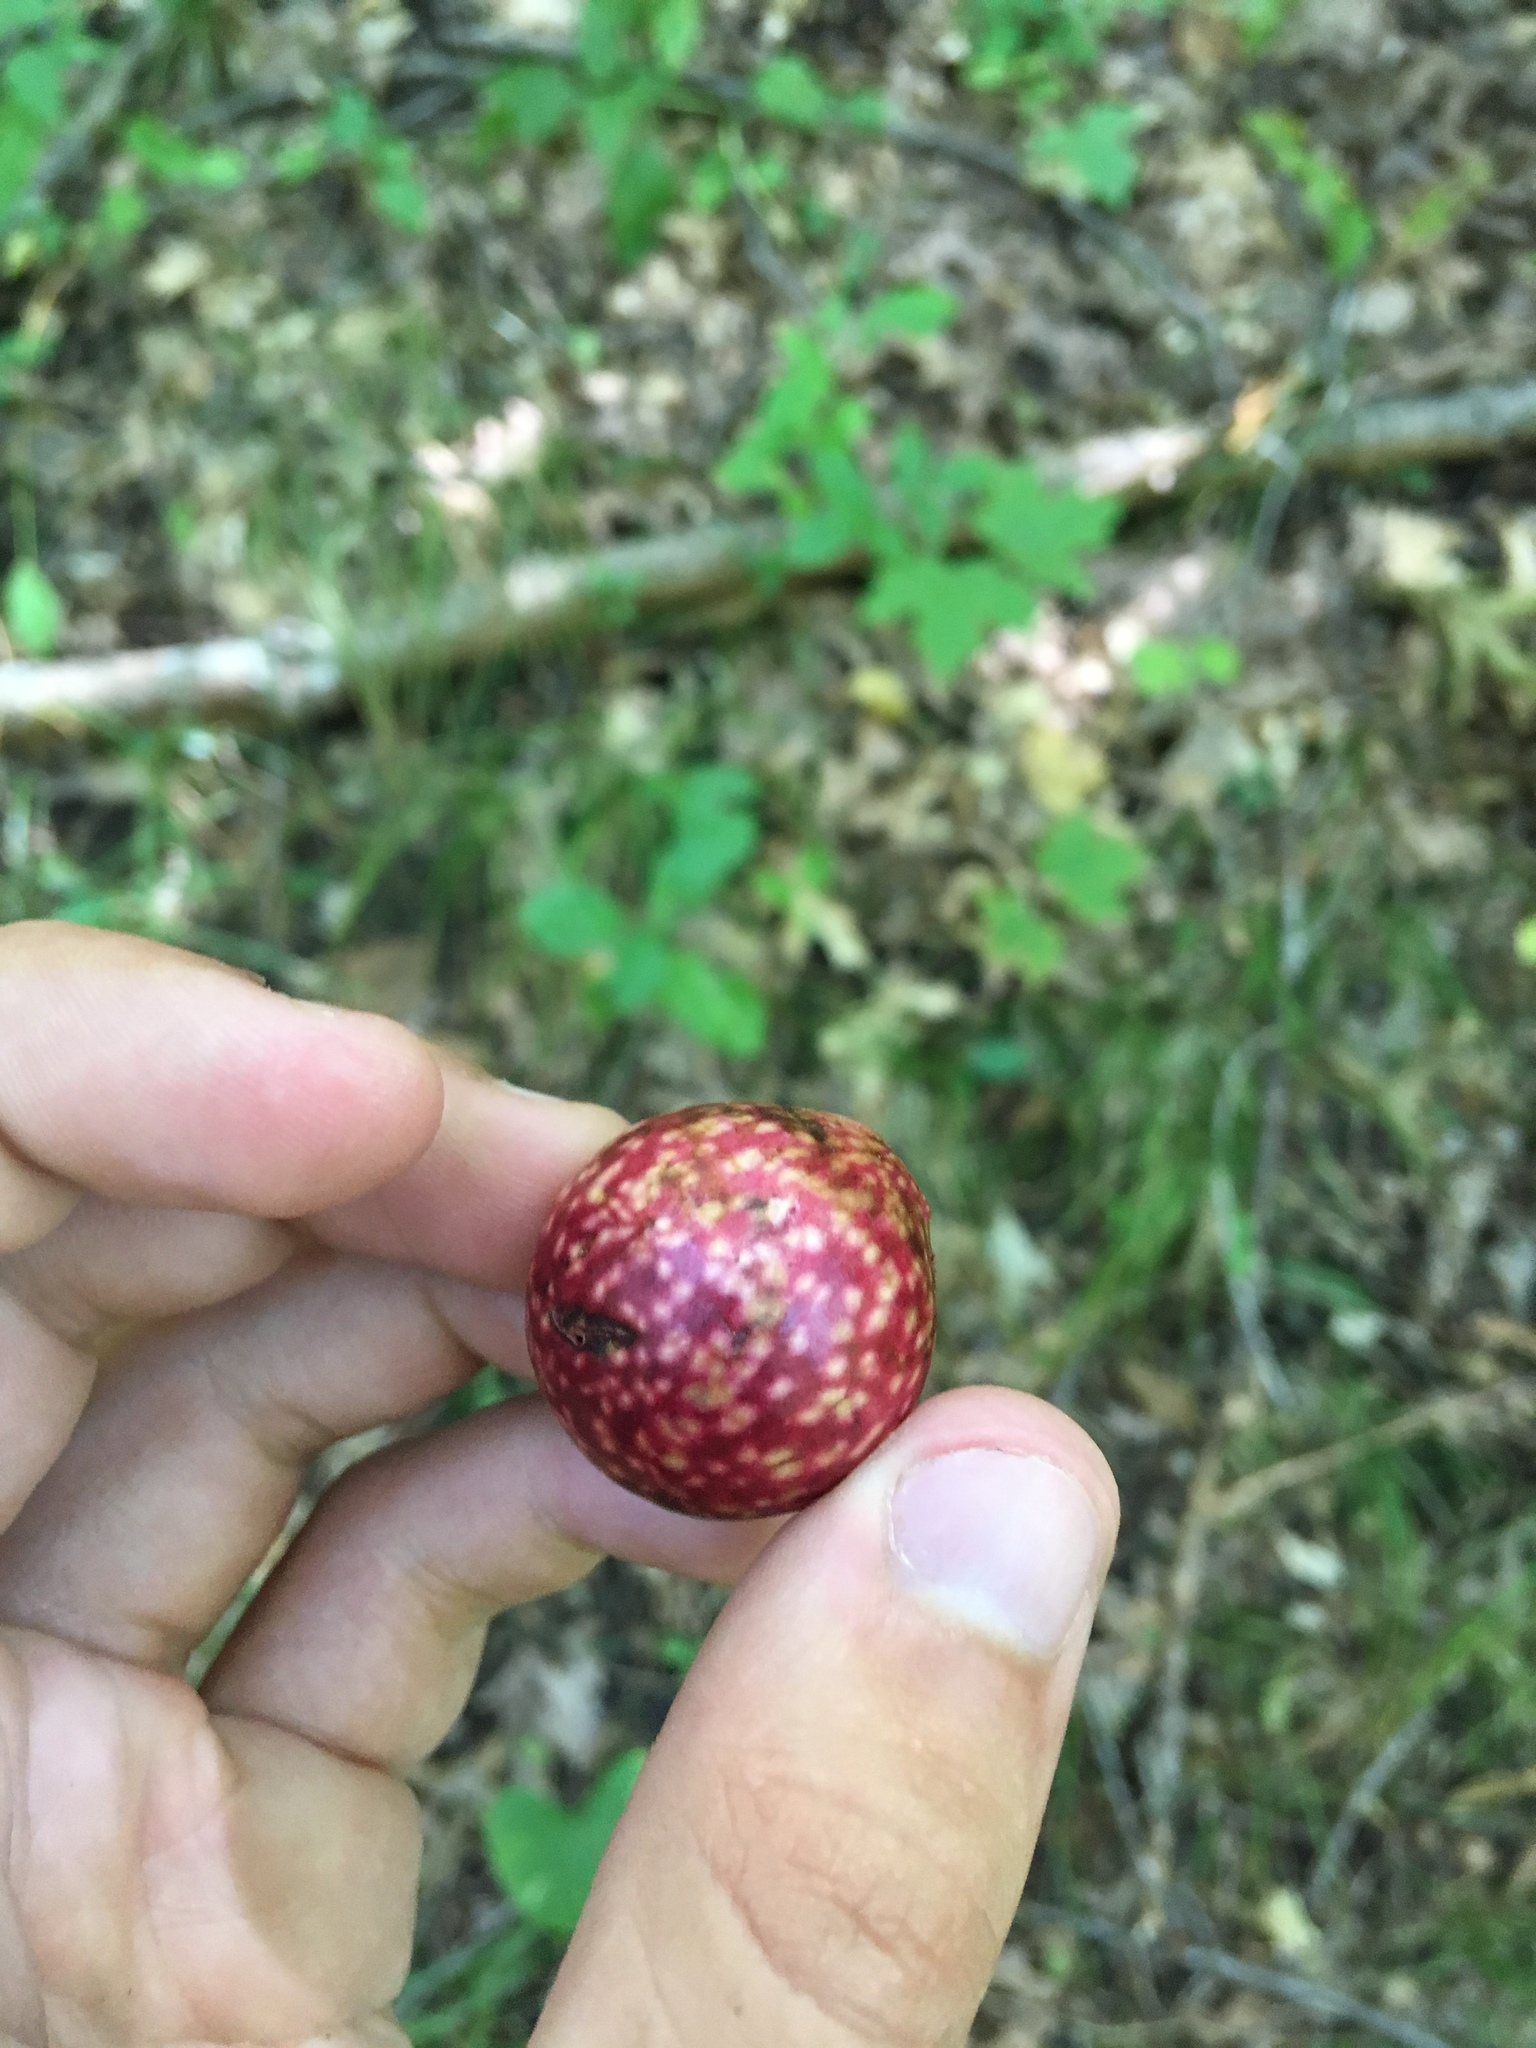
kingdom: Animalia
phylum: Arthropoda
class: Insecta
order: Hymenoptera
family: Cynipidae
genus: Amphibolips
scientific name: Amphibolips
